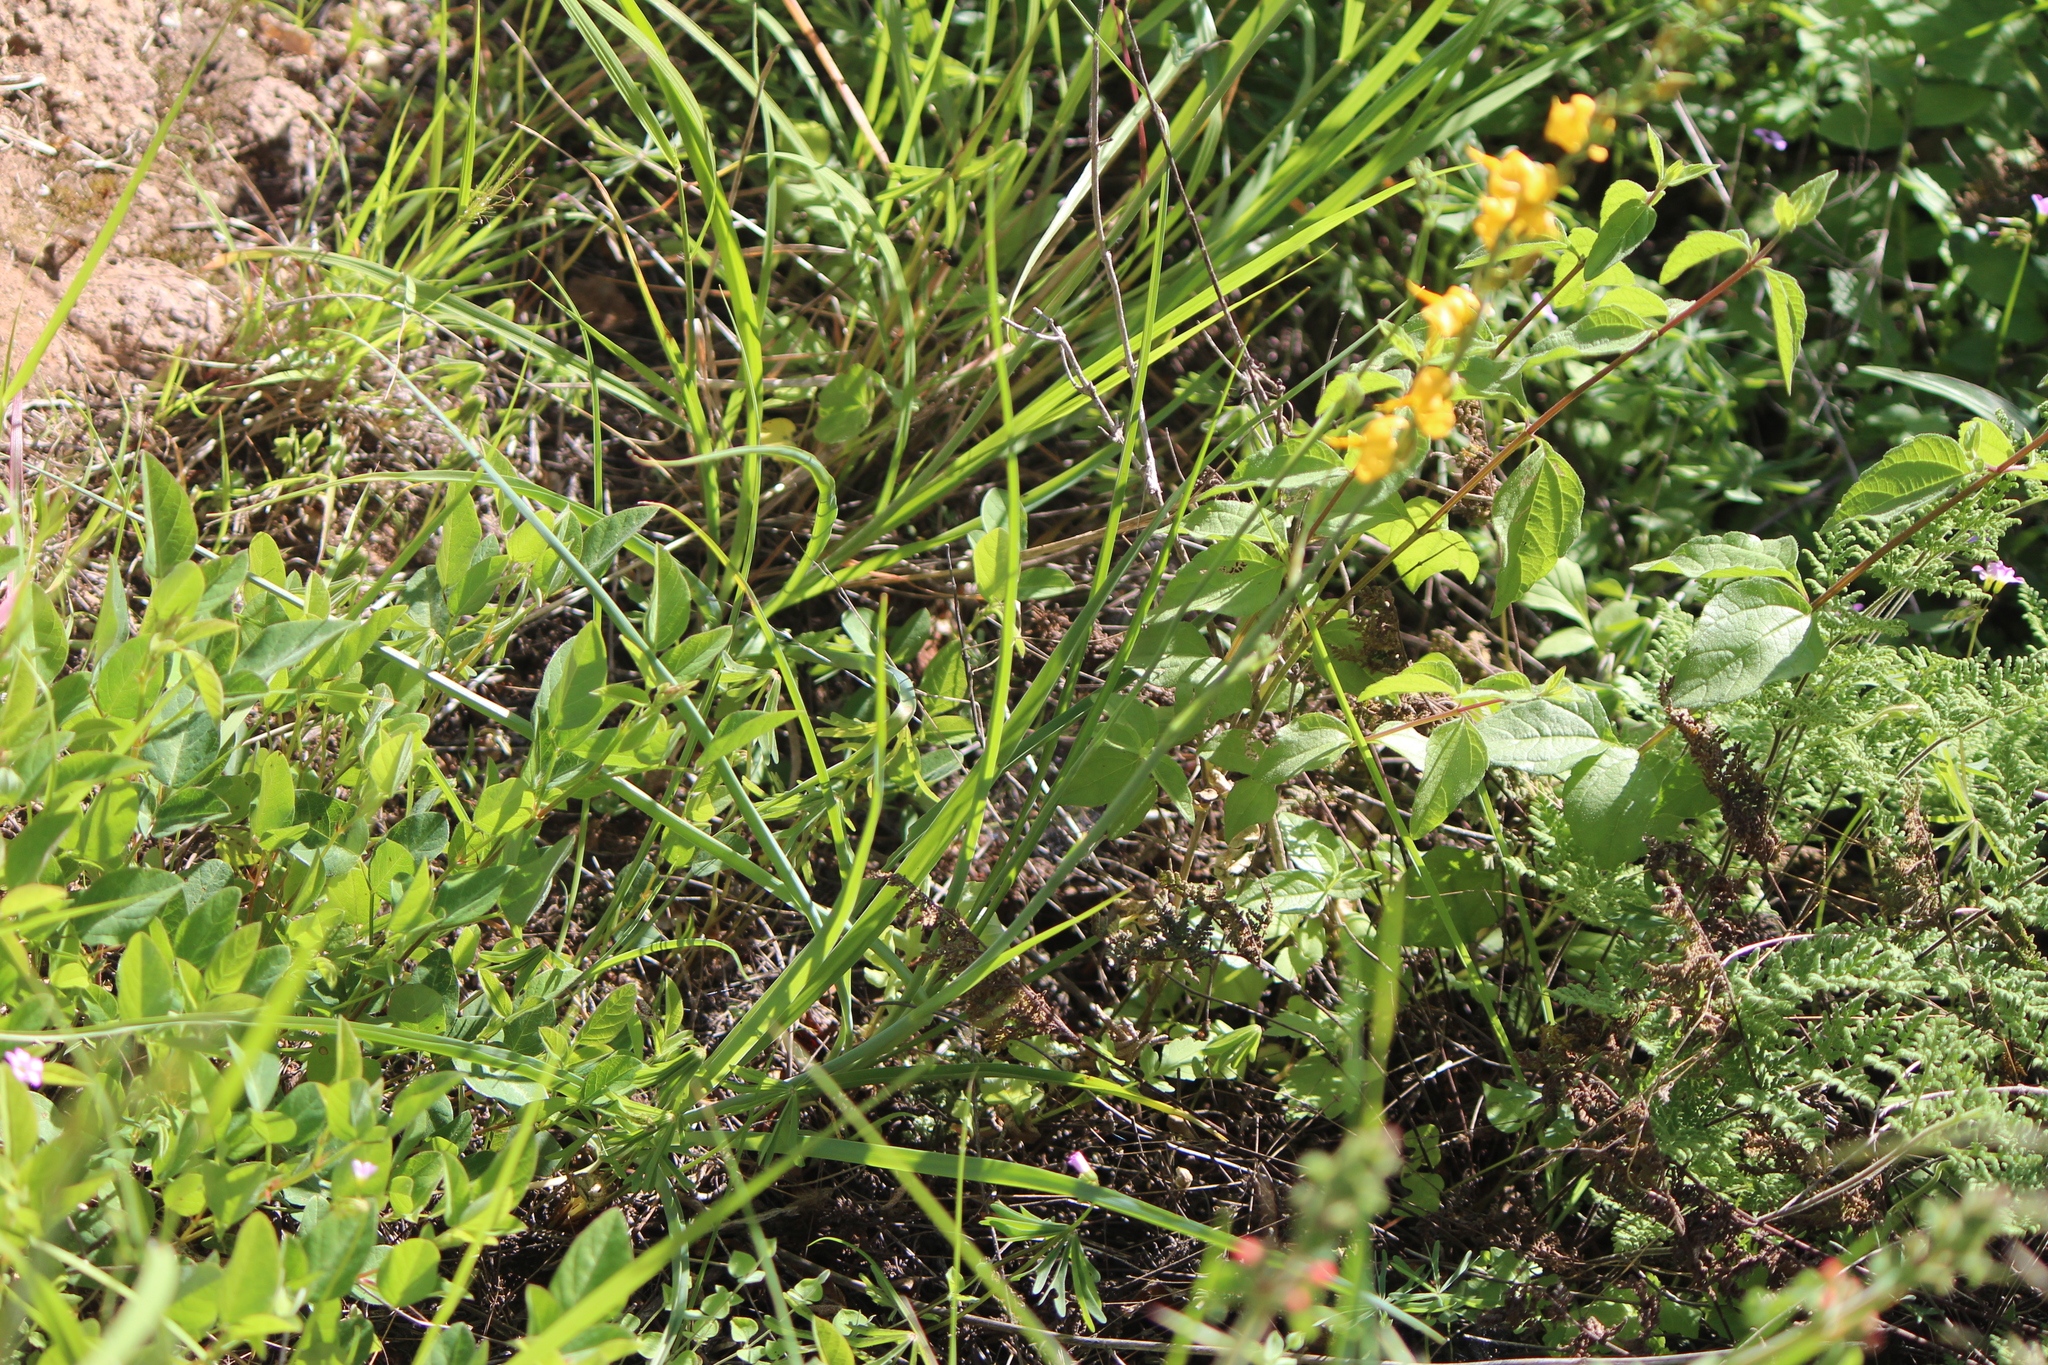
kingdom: Plantae
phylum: Tracheophyta
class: Liliopsida
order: Asparagales
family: Asparagaceae
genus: Echeandia
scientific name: Echeandia falcata
